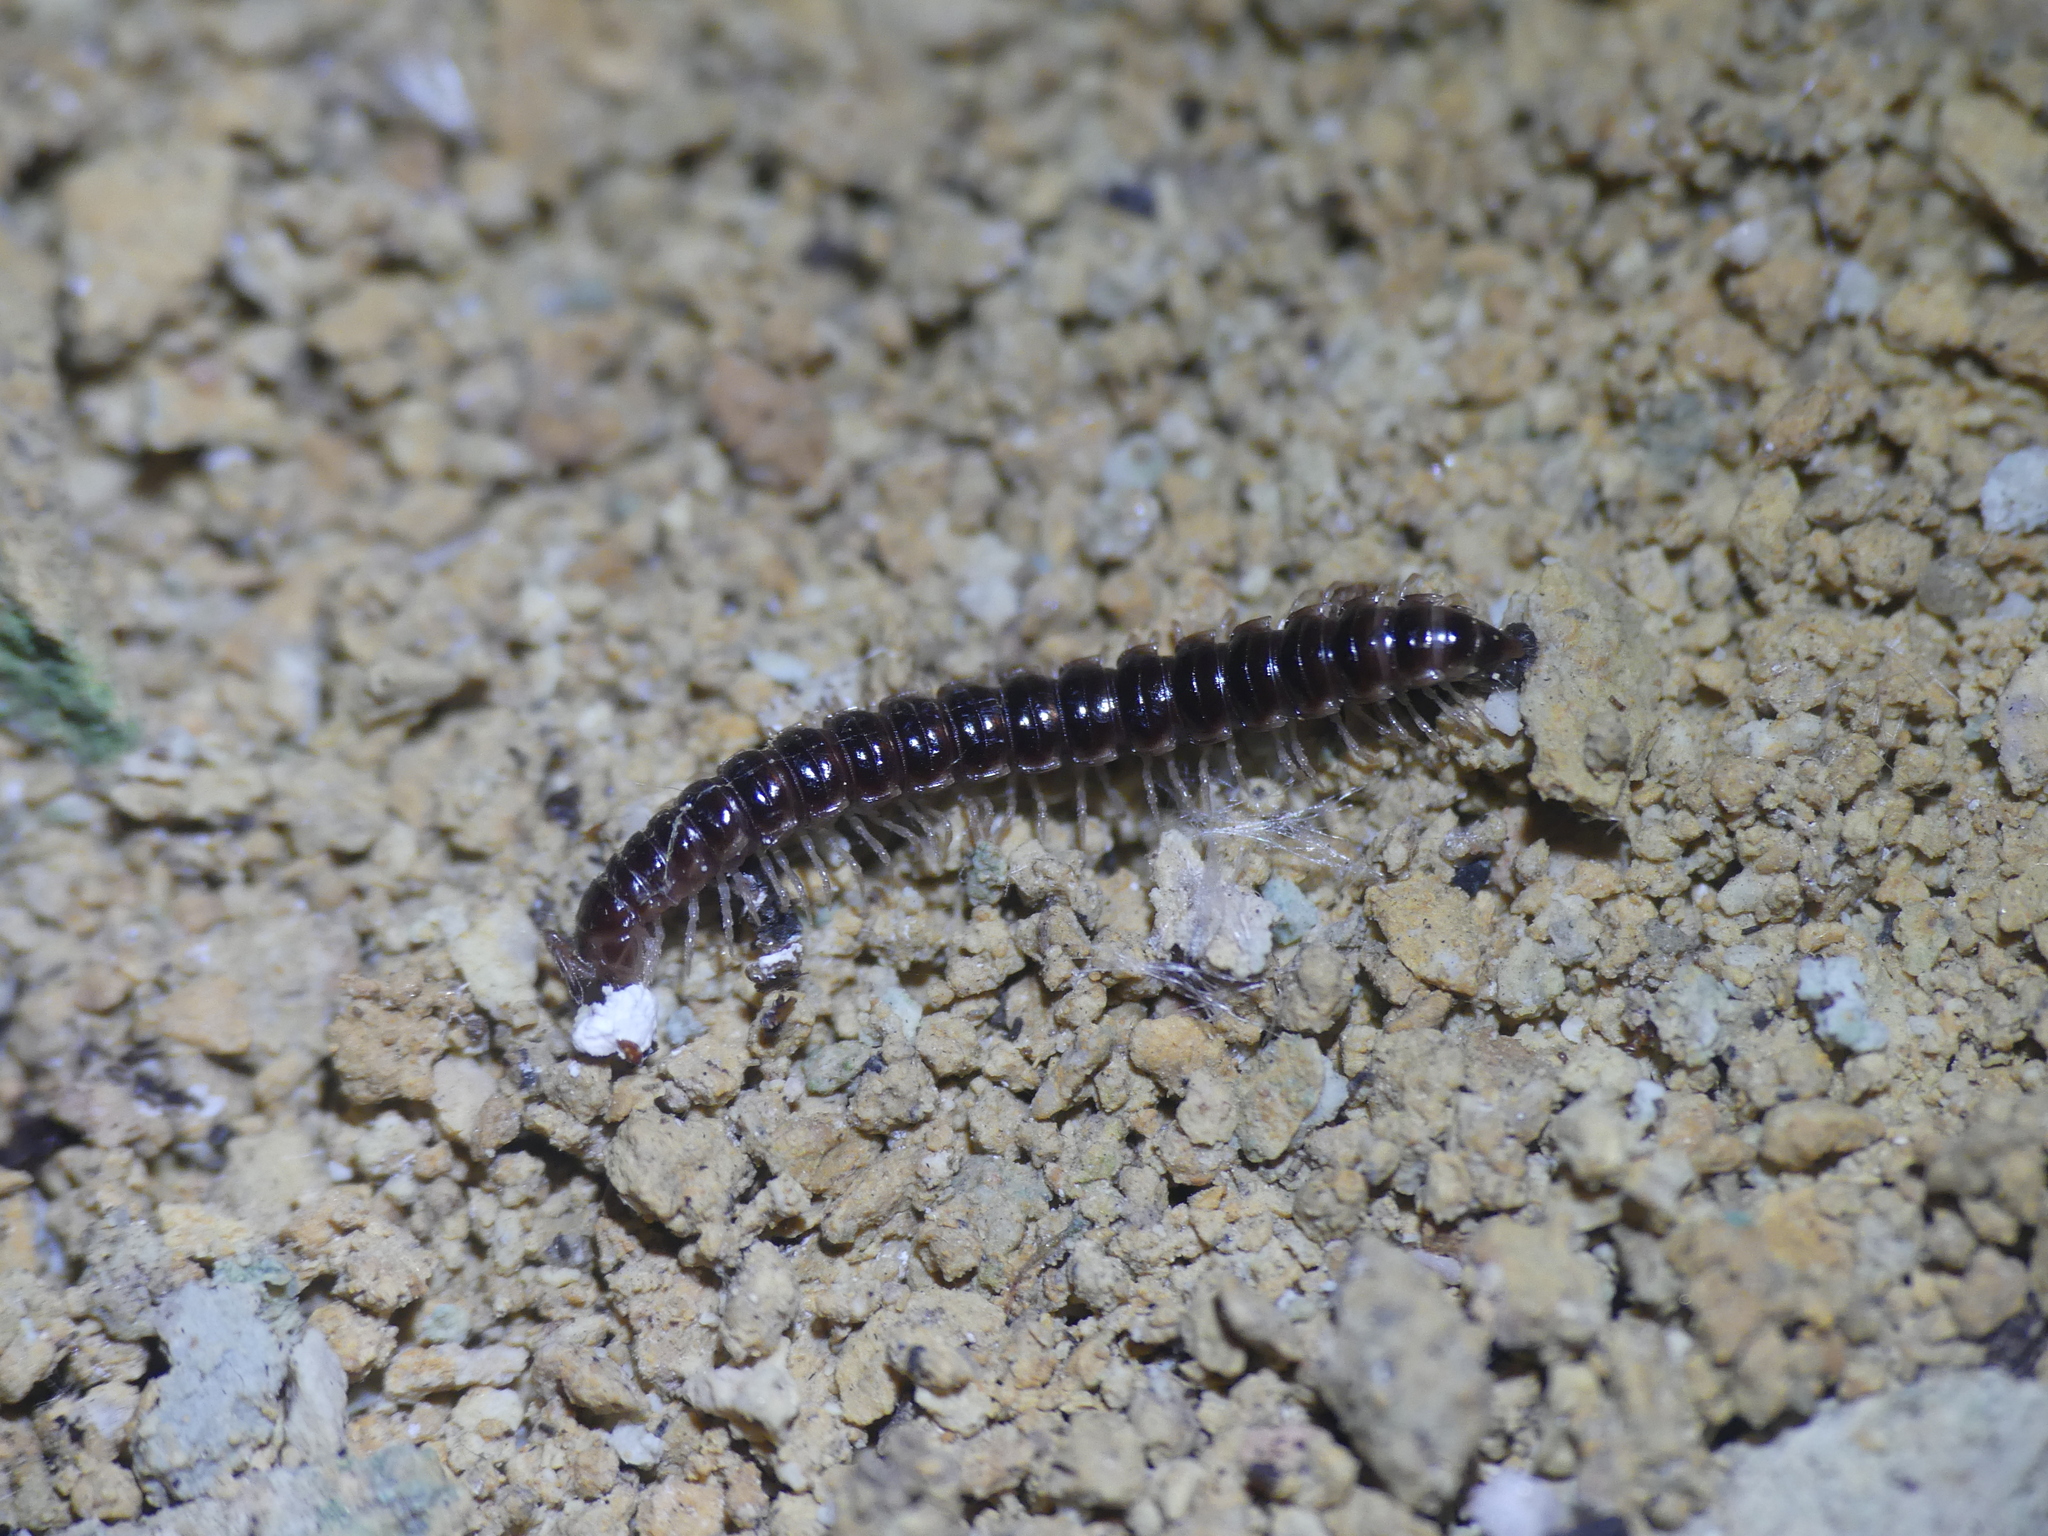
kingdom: Animalia
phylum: Arthropoda
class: Diplopoda
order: Polydesmida
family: Paradoxosomatidae
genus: Oxidus
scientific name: Oxidus gracilis
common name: Greenhouse millipede
